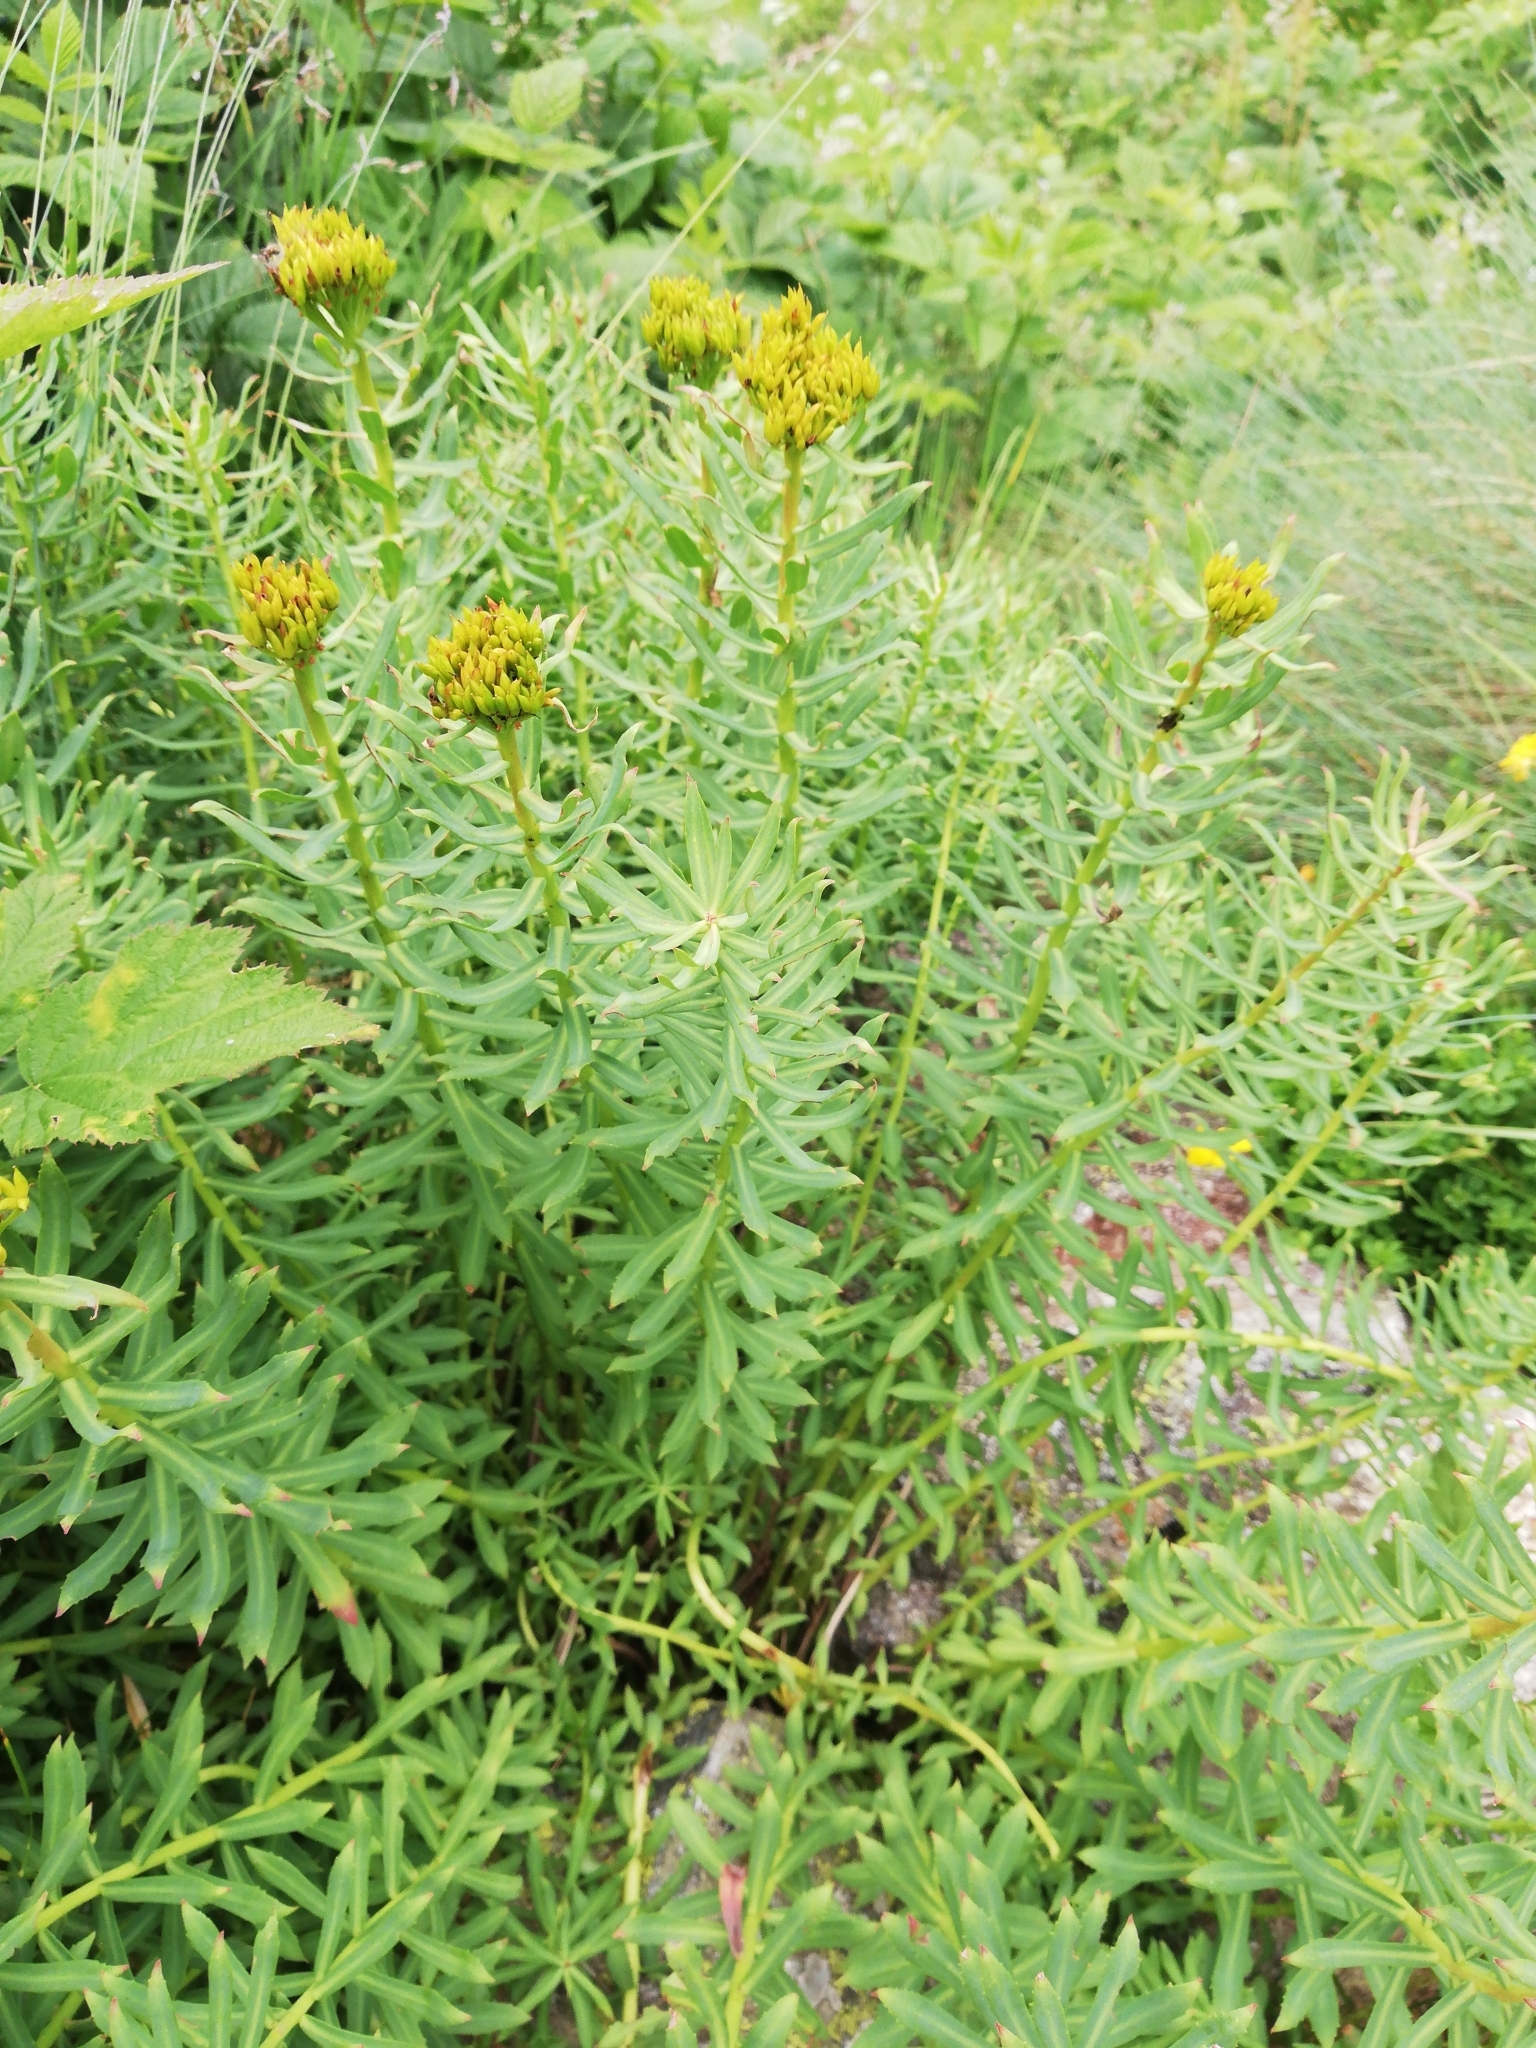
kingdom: Plantae
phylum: Tracheophyta
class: Magnoliopsida
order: Saxifragales
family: Crassulaceae
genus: Rhodiola
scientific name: Rhodiola rosea
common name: Roseroot
